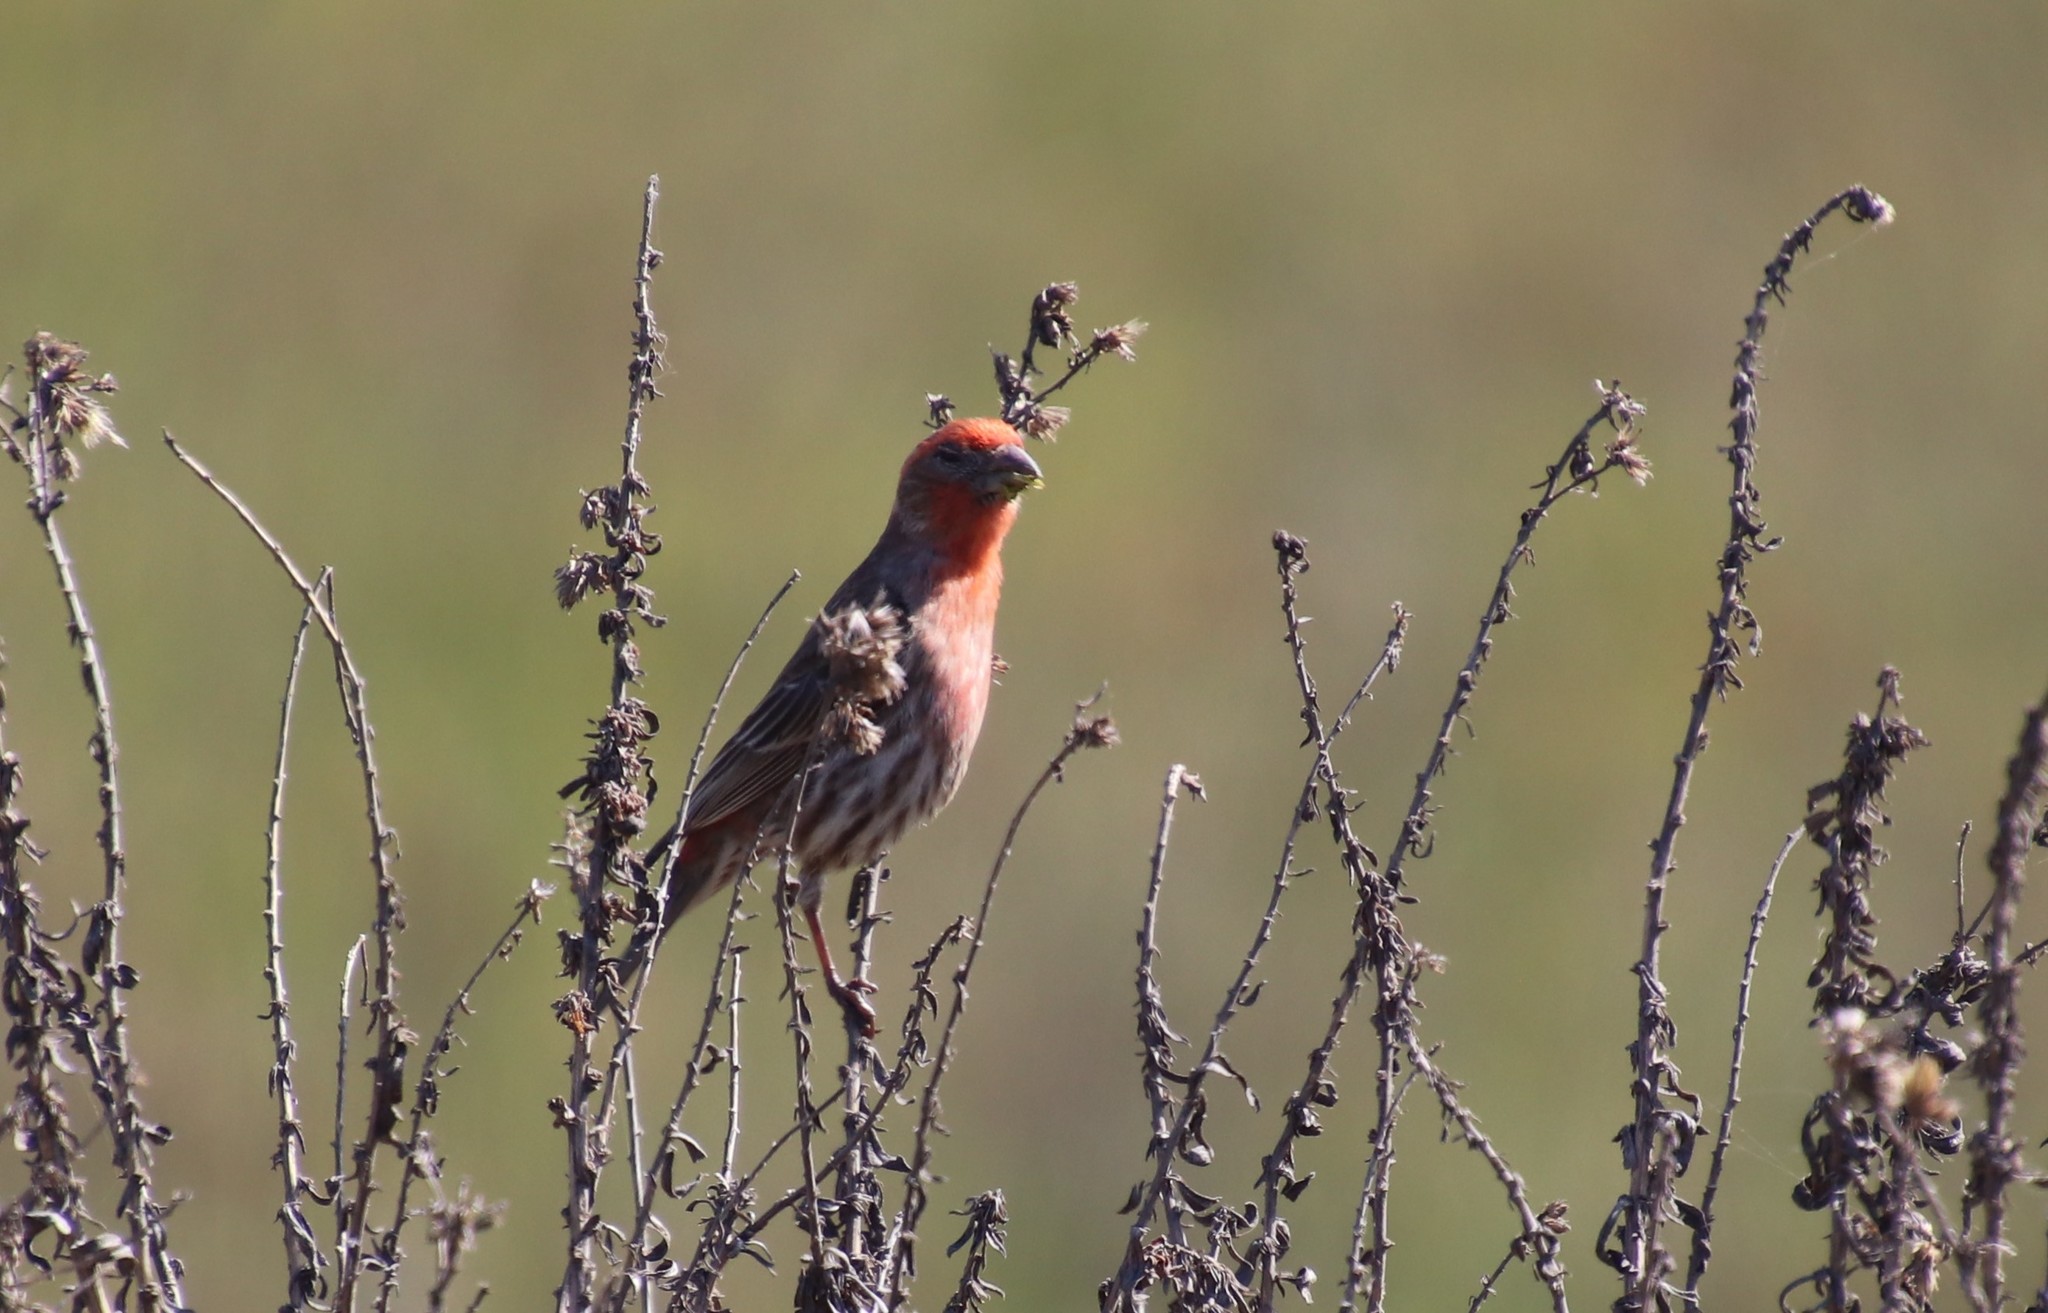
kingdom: Animalia
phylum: Chordata
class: Aves
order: Passeriformes
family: Fringillidae
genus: Haemorhous
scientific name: Haemorhous mexicanus
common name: House finch
